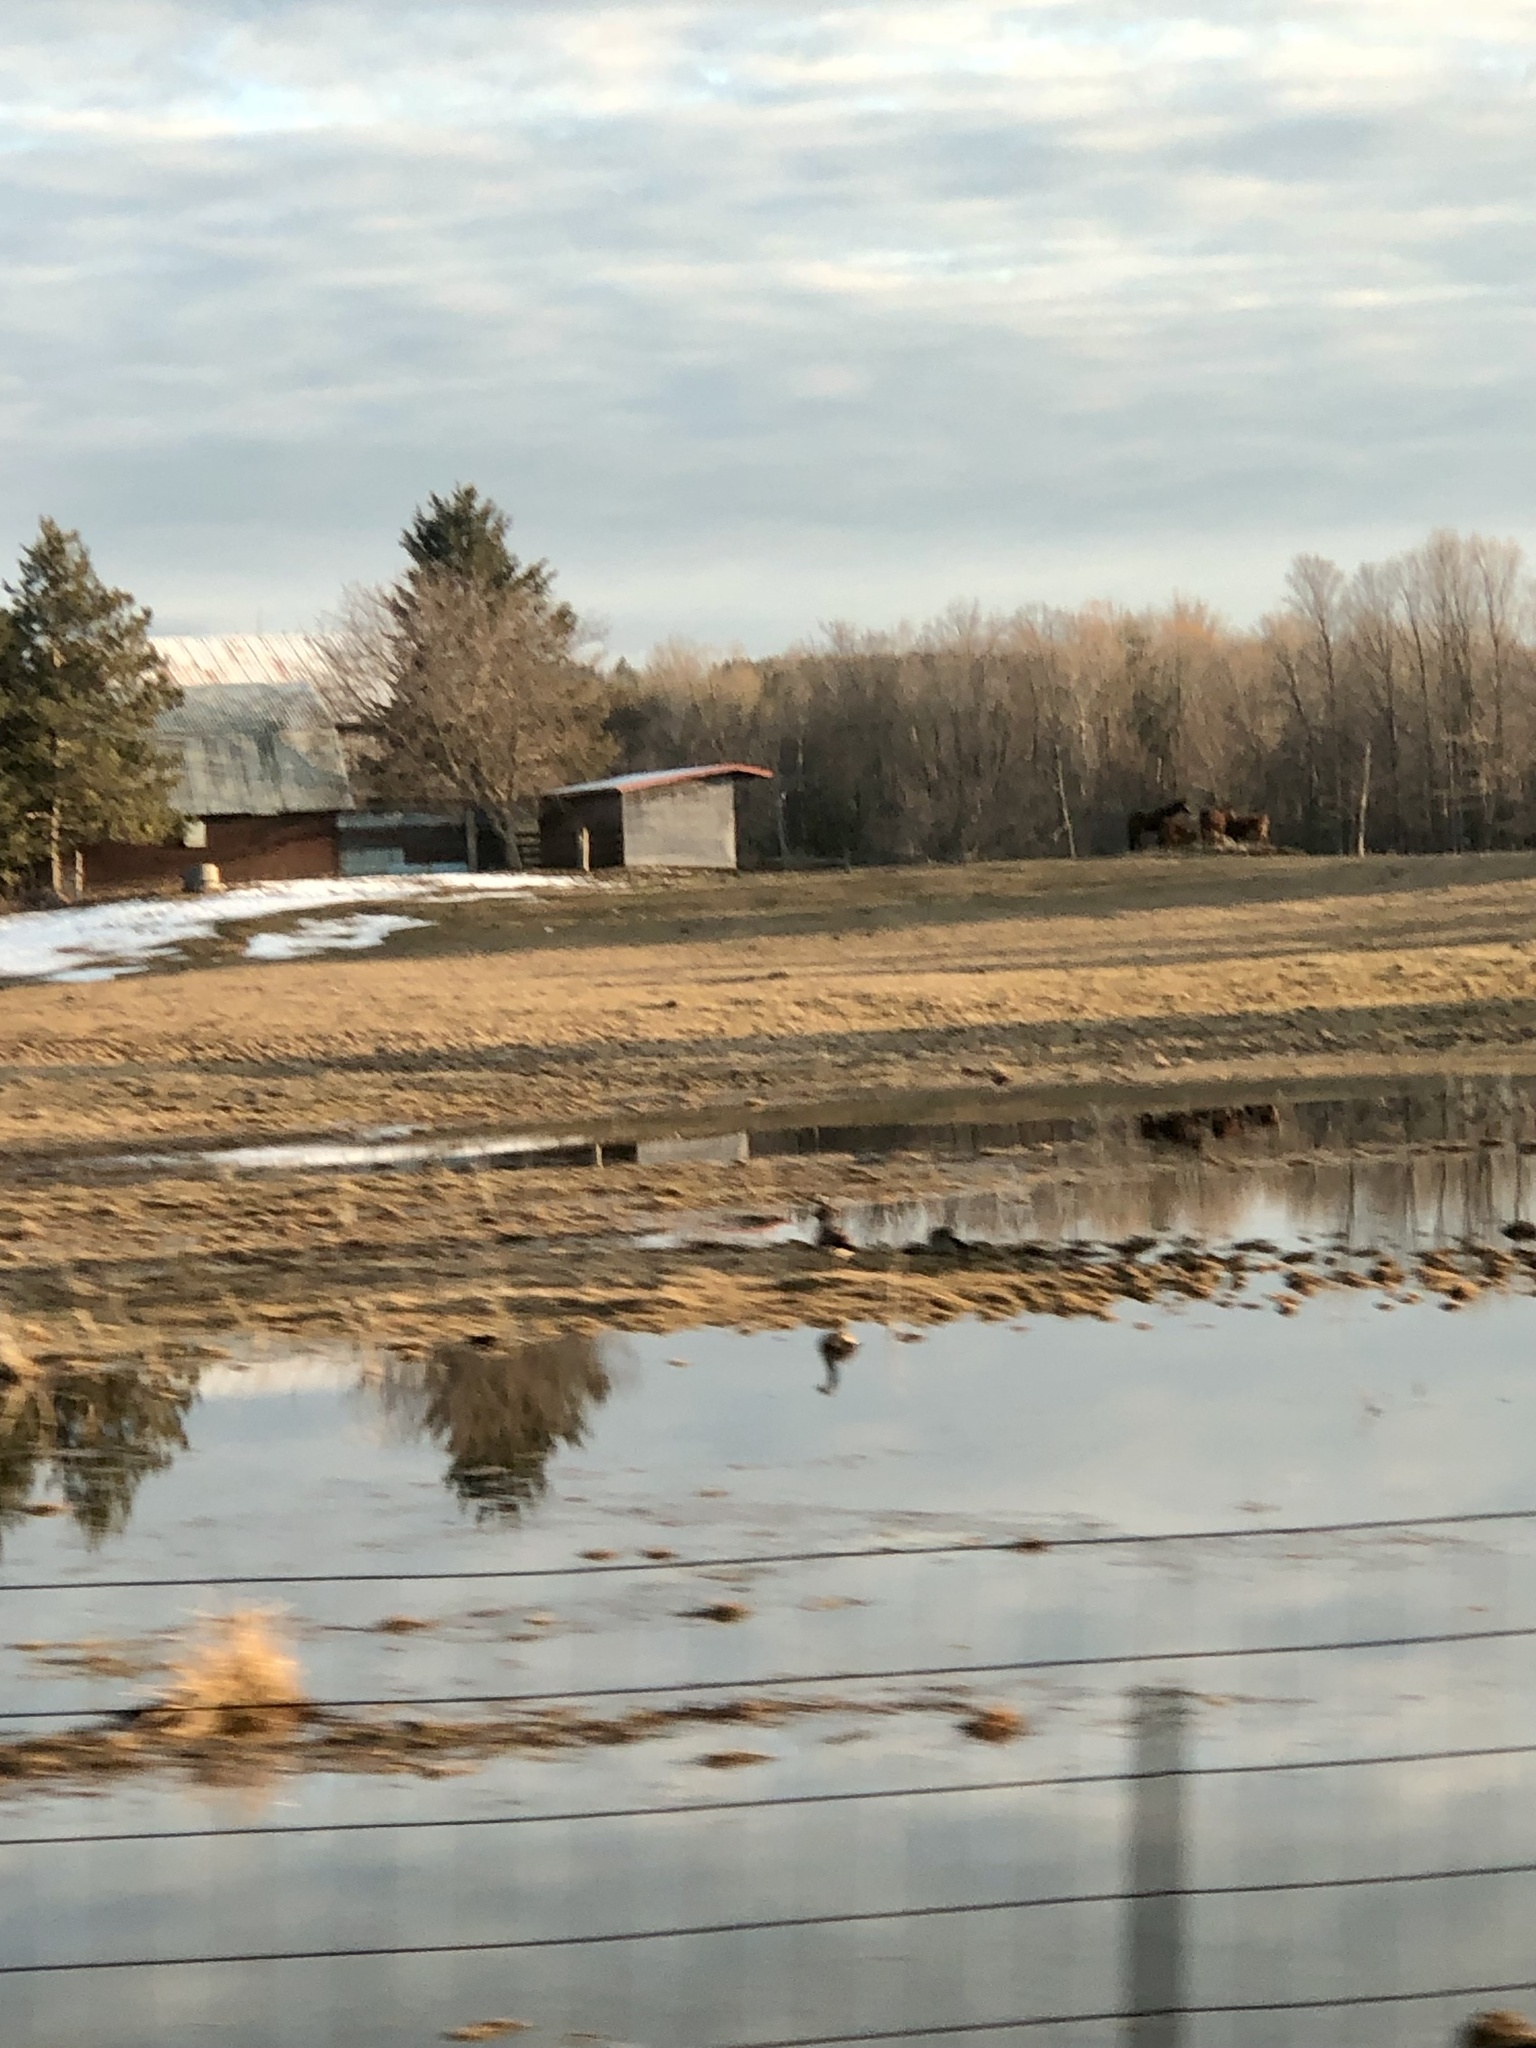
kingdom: Animalia
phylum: Chordata
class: Aves
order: Anseriformes
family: Anatidae
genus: Branta
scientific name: Branta canadensis
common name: Canada goose
